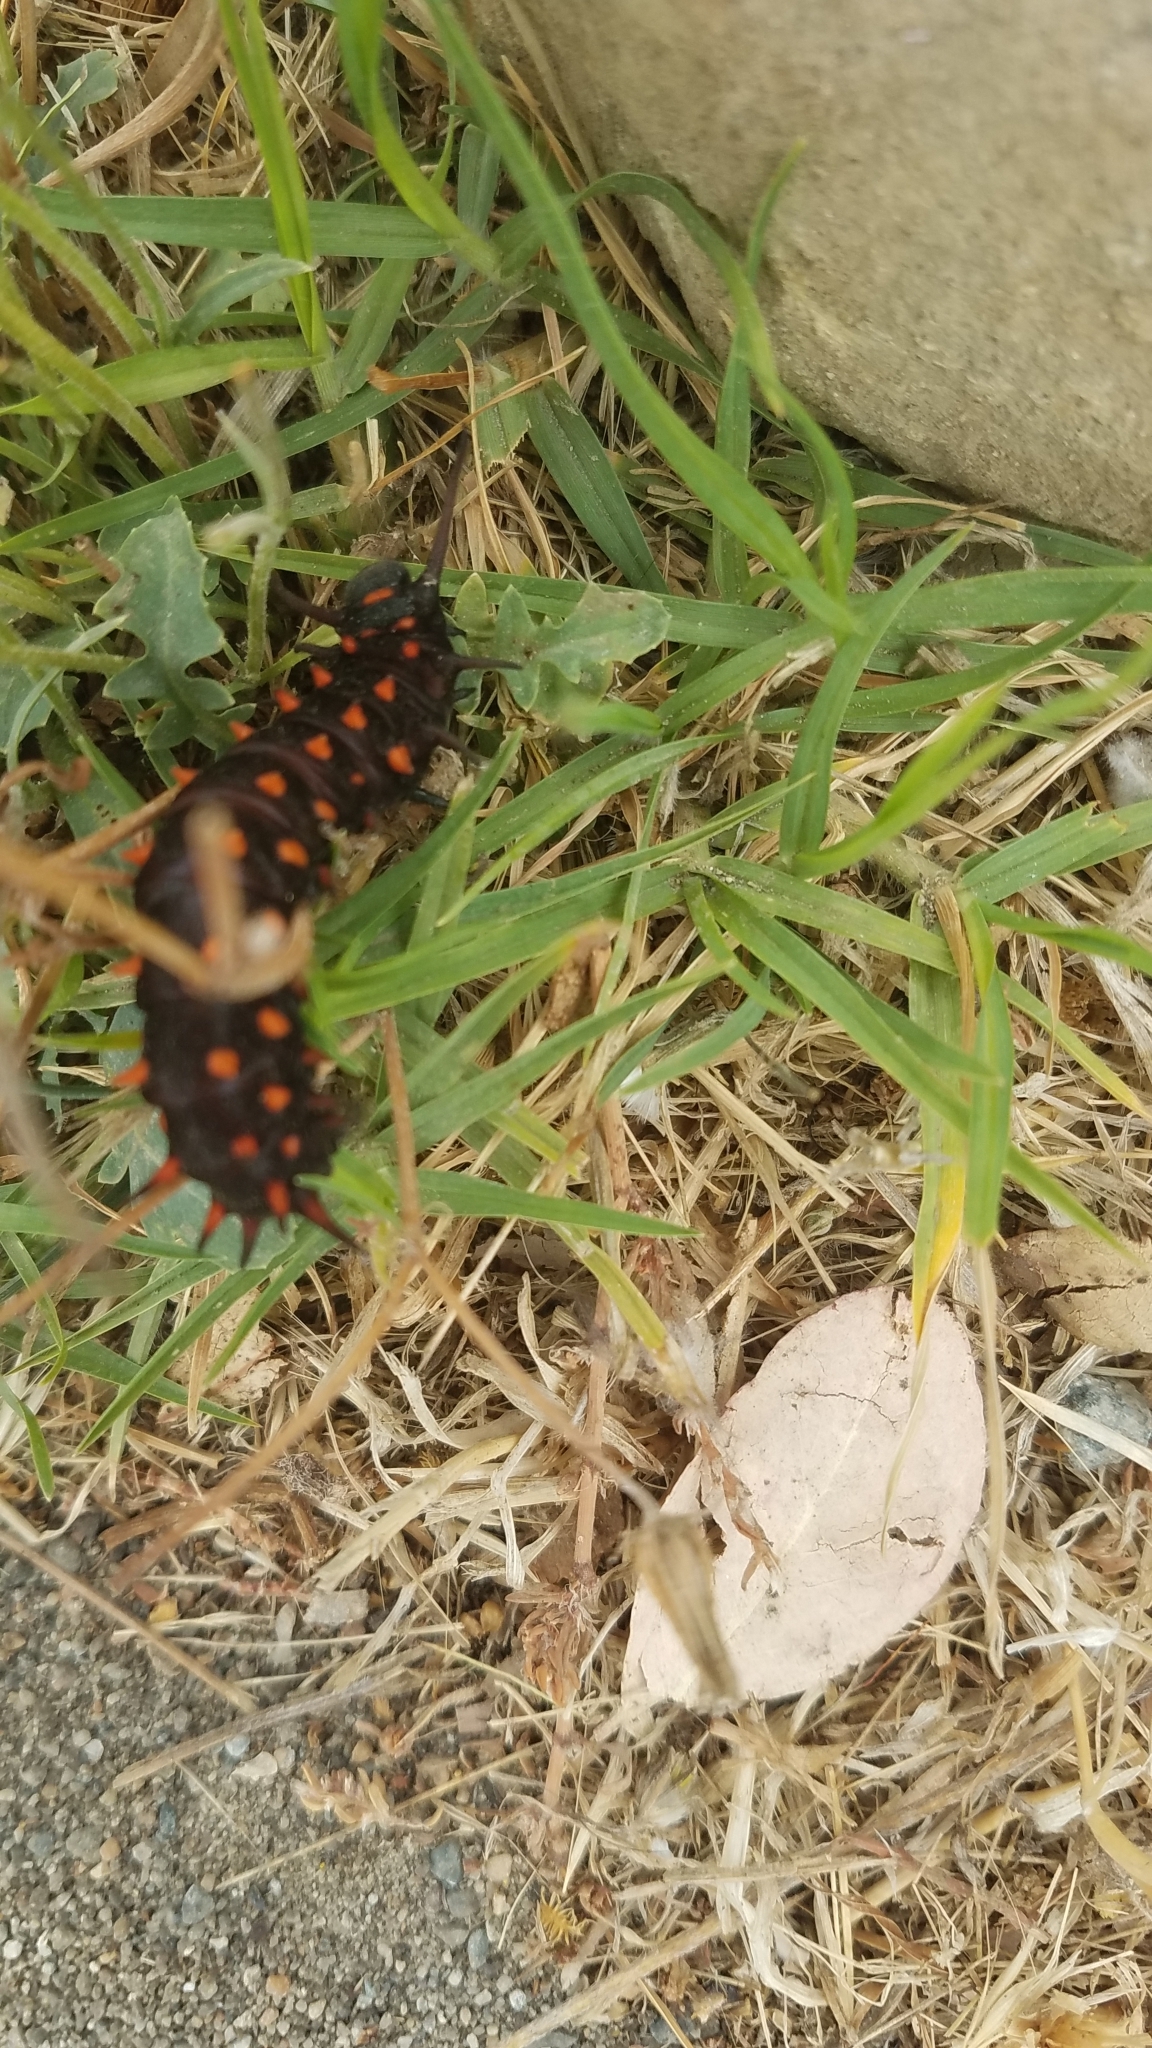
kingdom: Animalia
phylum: Arthropoda
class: Insecta
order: Lepidoptera
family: Papilionidae
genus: Battus
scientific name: Battus philenor
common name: Pipevine swallowtail
